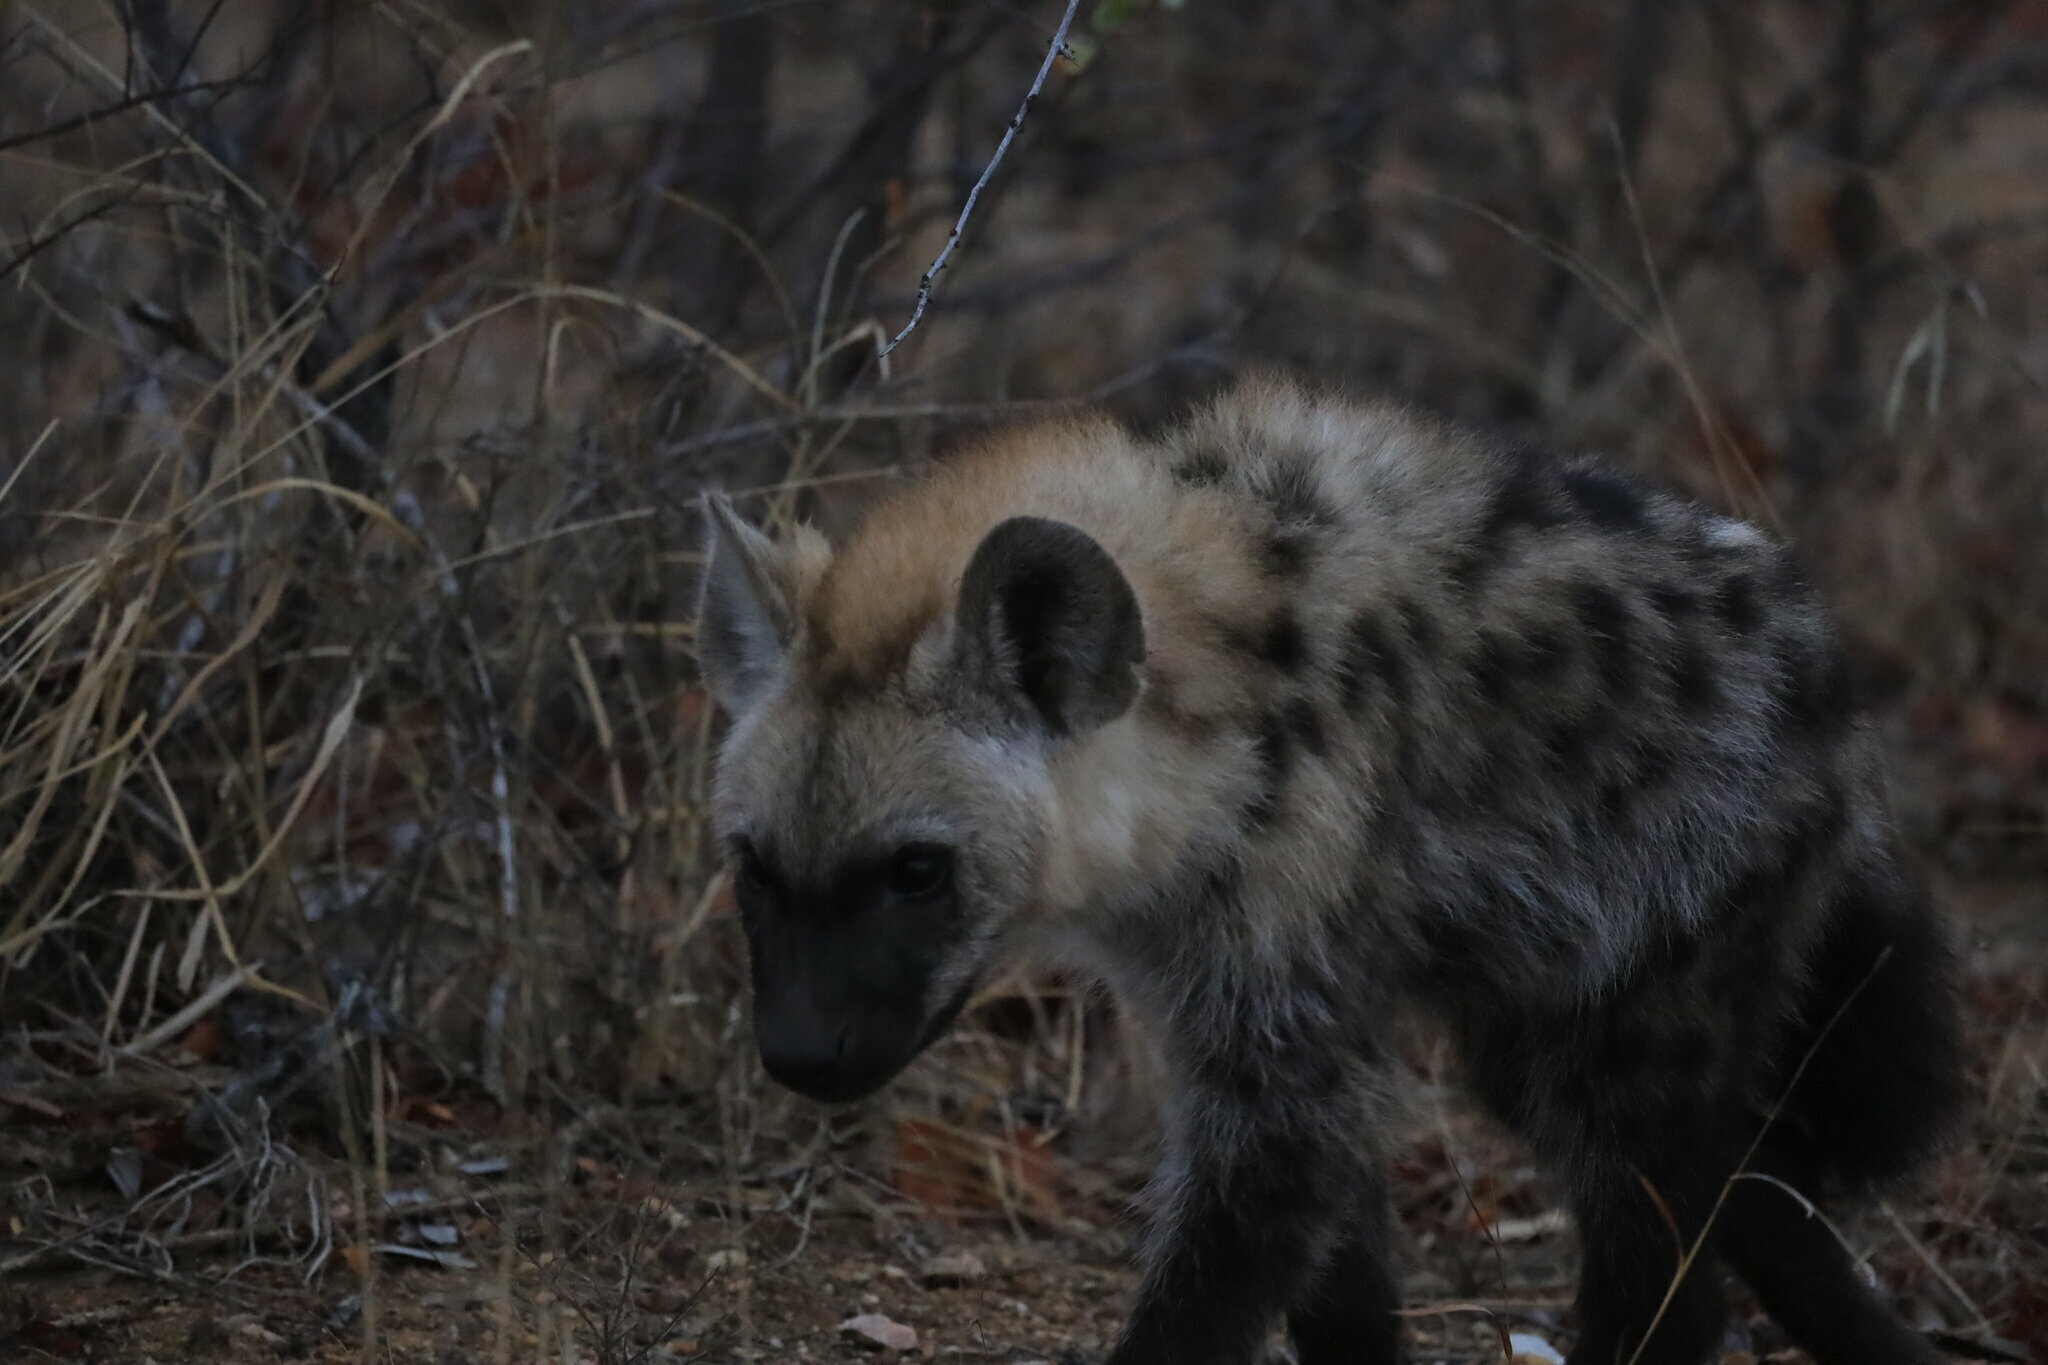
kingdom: Animalia
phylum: Chordata
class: Mammalia
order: Carnivora
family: Hyaenidae
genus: Crocuta
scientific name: Crocuta crocuta
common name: Spotted hyaena
